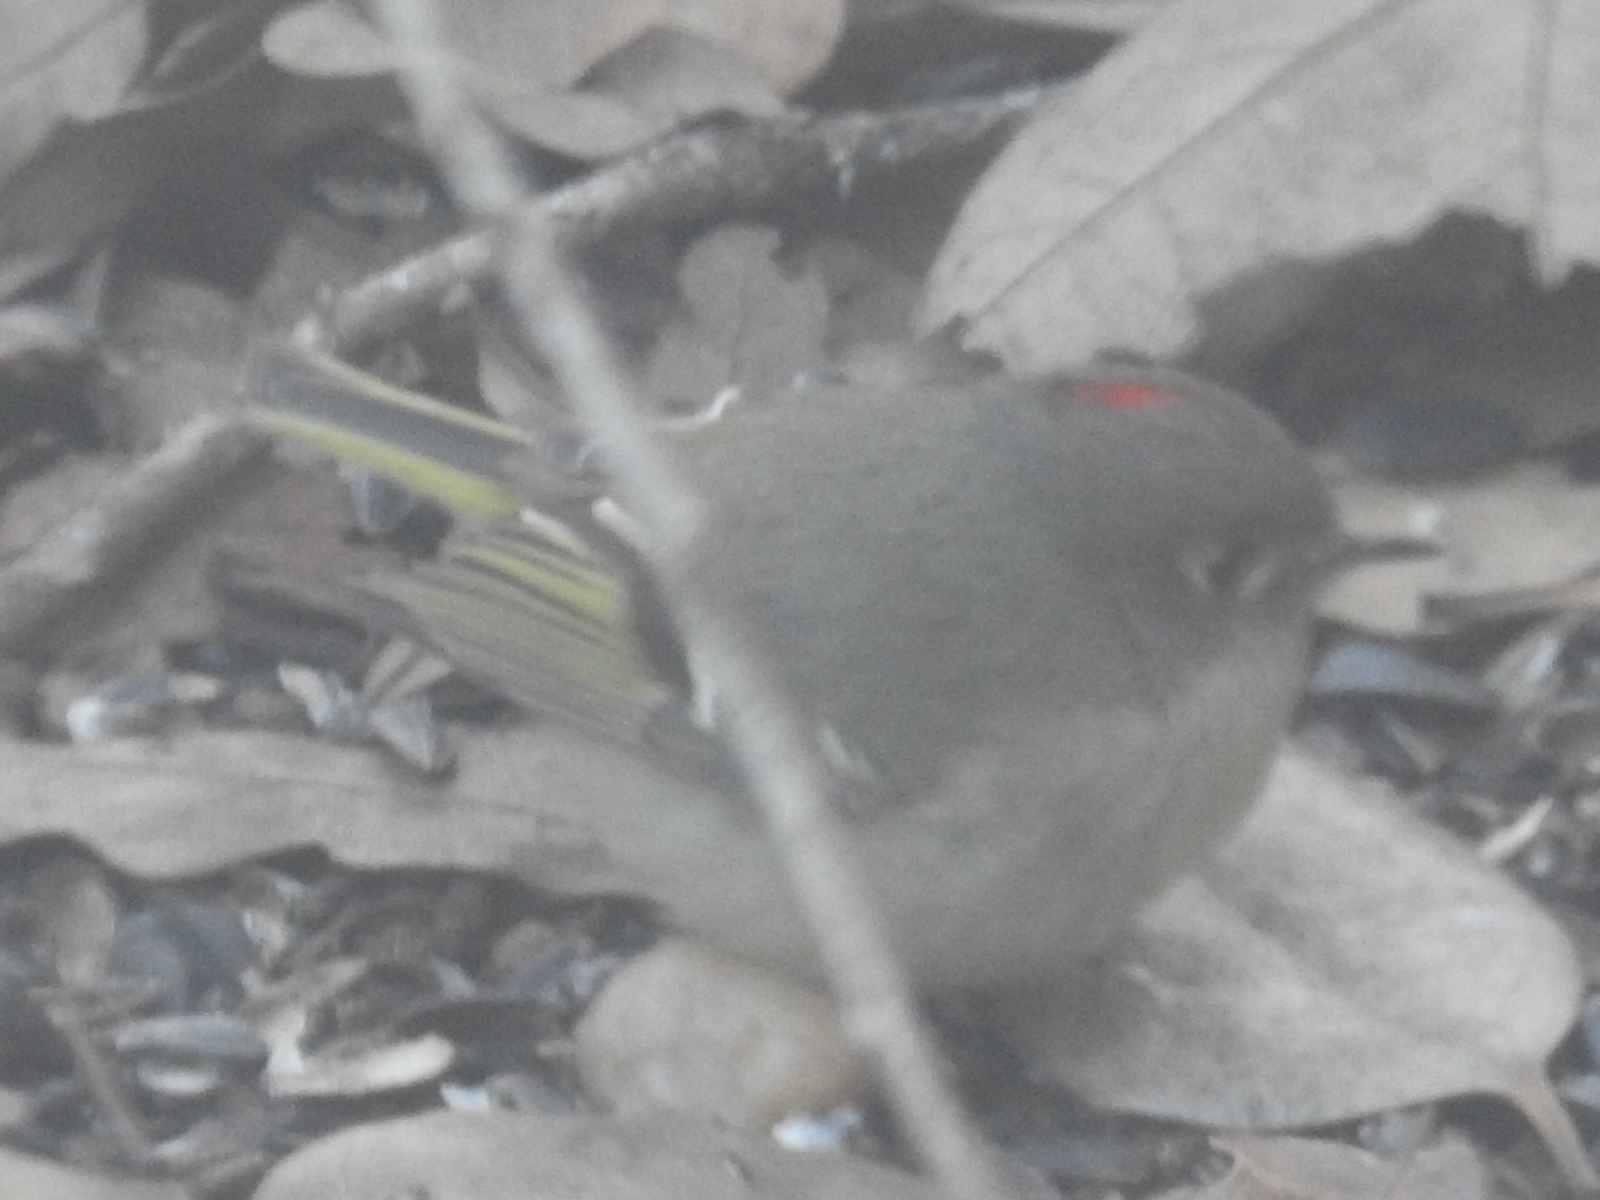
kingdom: Animalia
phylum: Chordata
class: Aves
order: Passeriformes
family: Regulidae
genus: Regulus
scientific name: Regulus calendula
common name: Ruby-crowned kinglet
